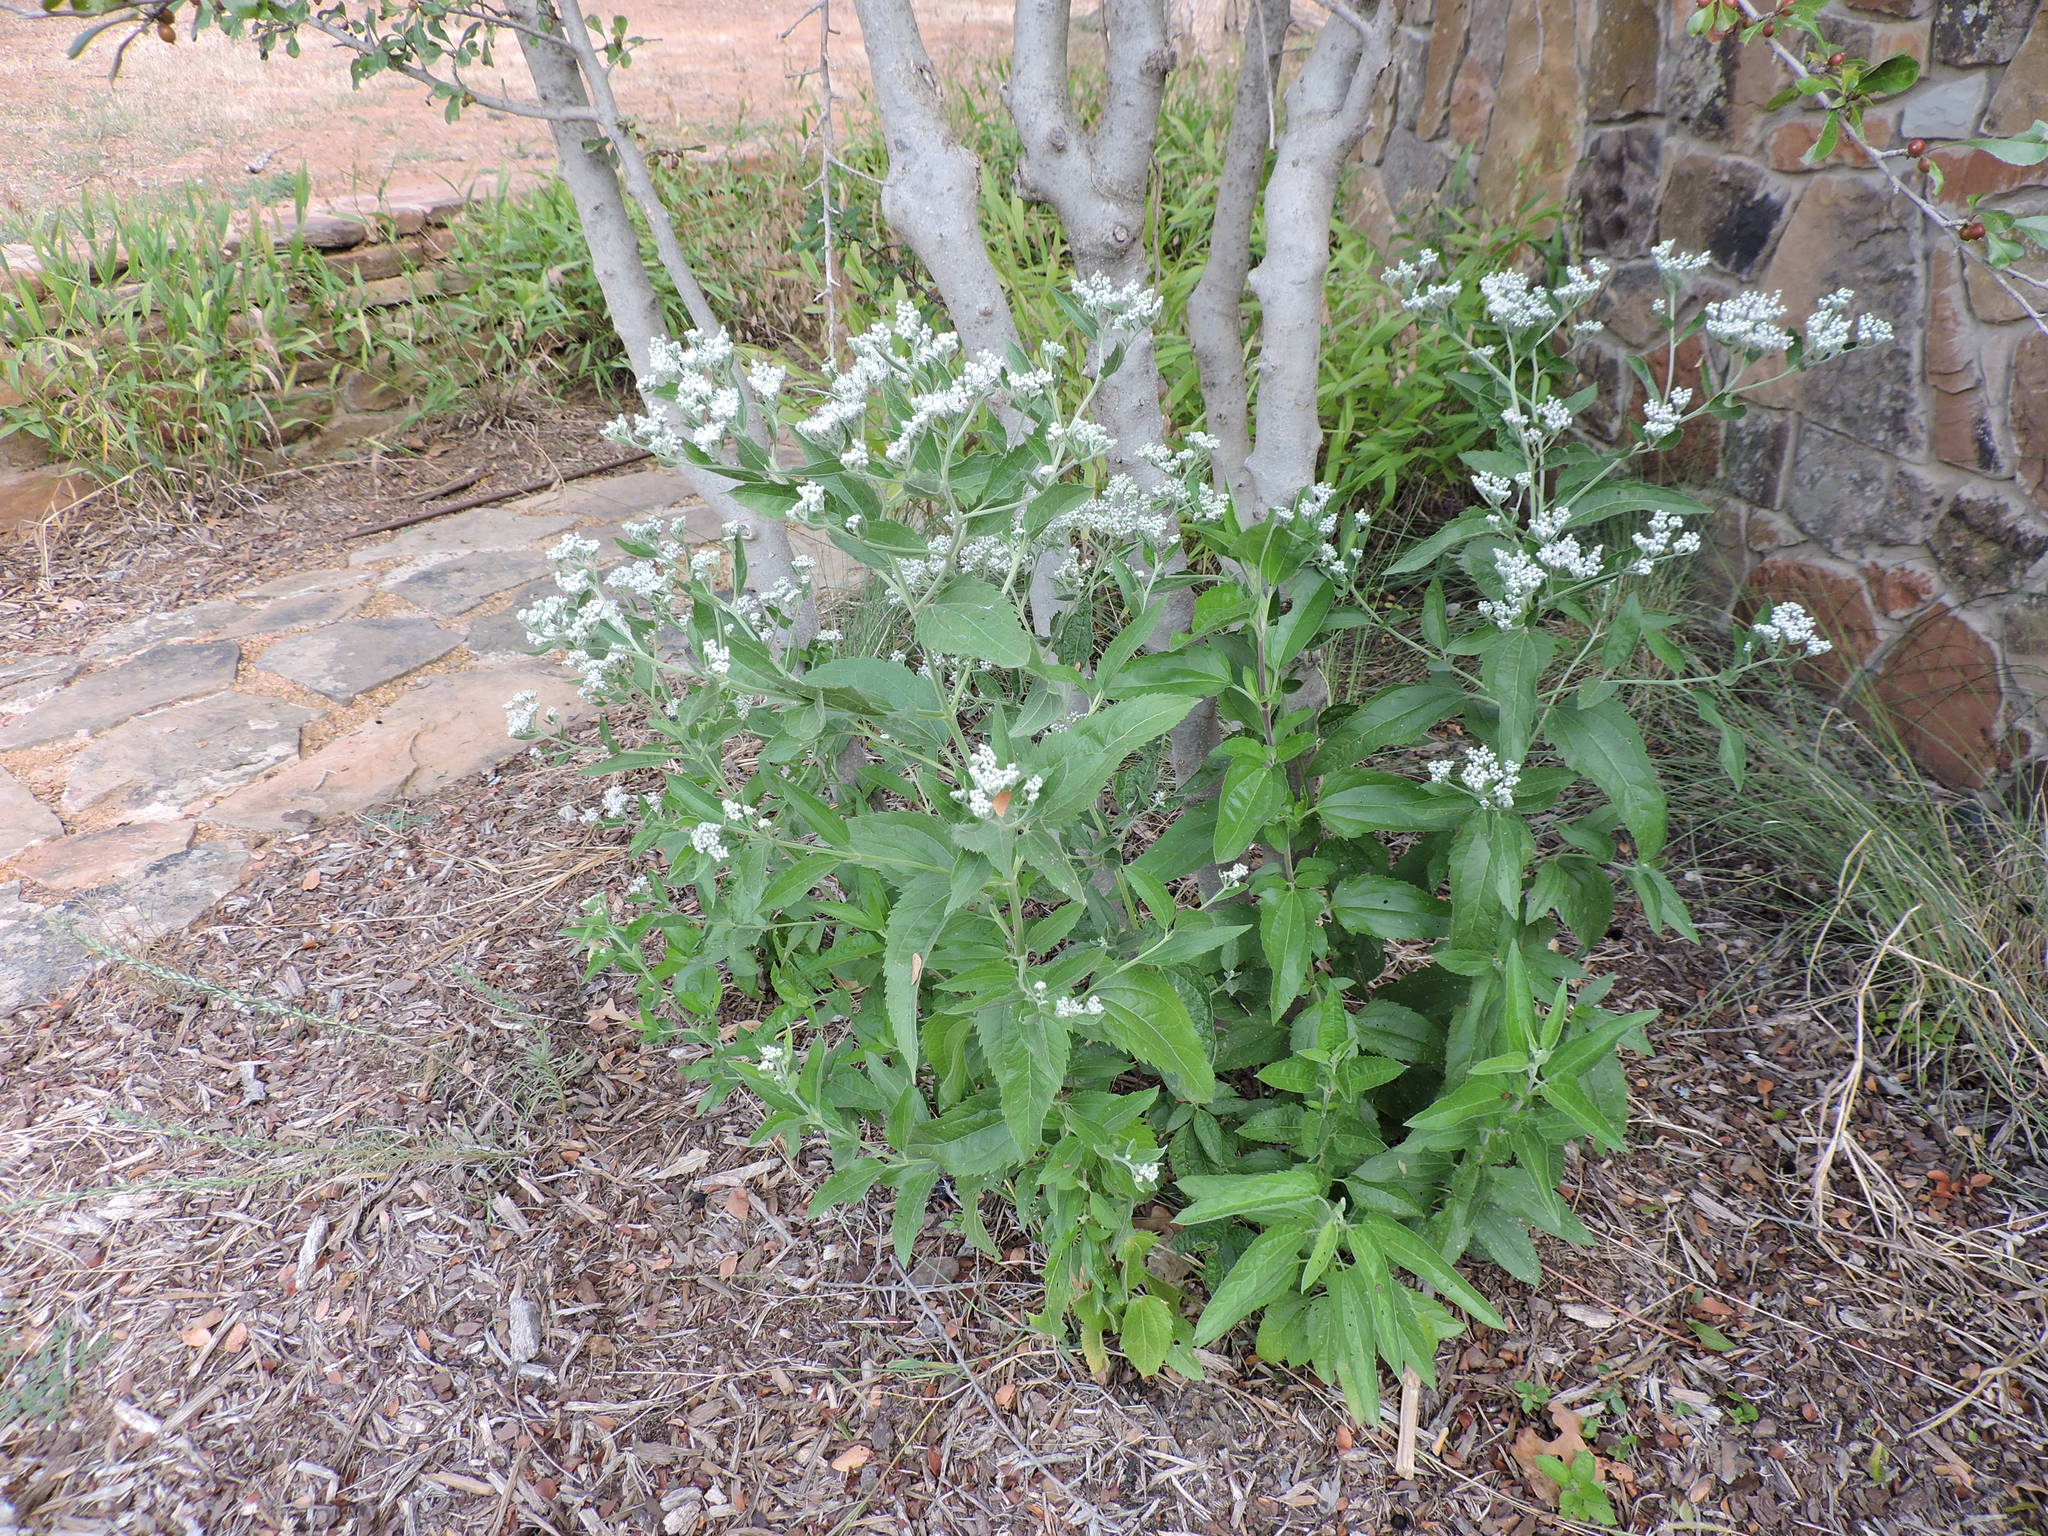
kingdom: Plantae
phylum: Tracheophyta
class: Magnoliopsida
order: Asterales
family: Asteraceae
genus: Eupatorium
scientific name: Eupatorium serotinum
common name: Late boneset
